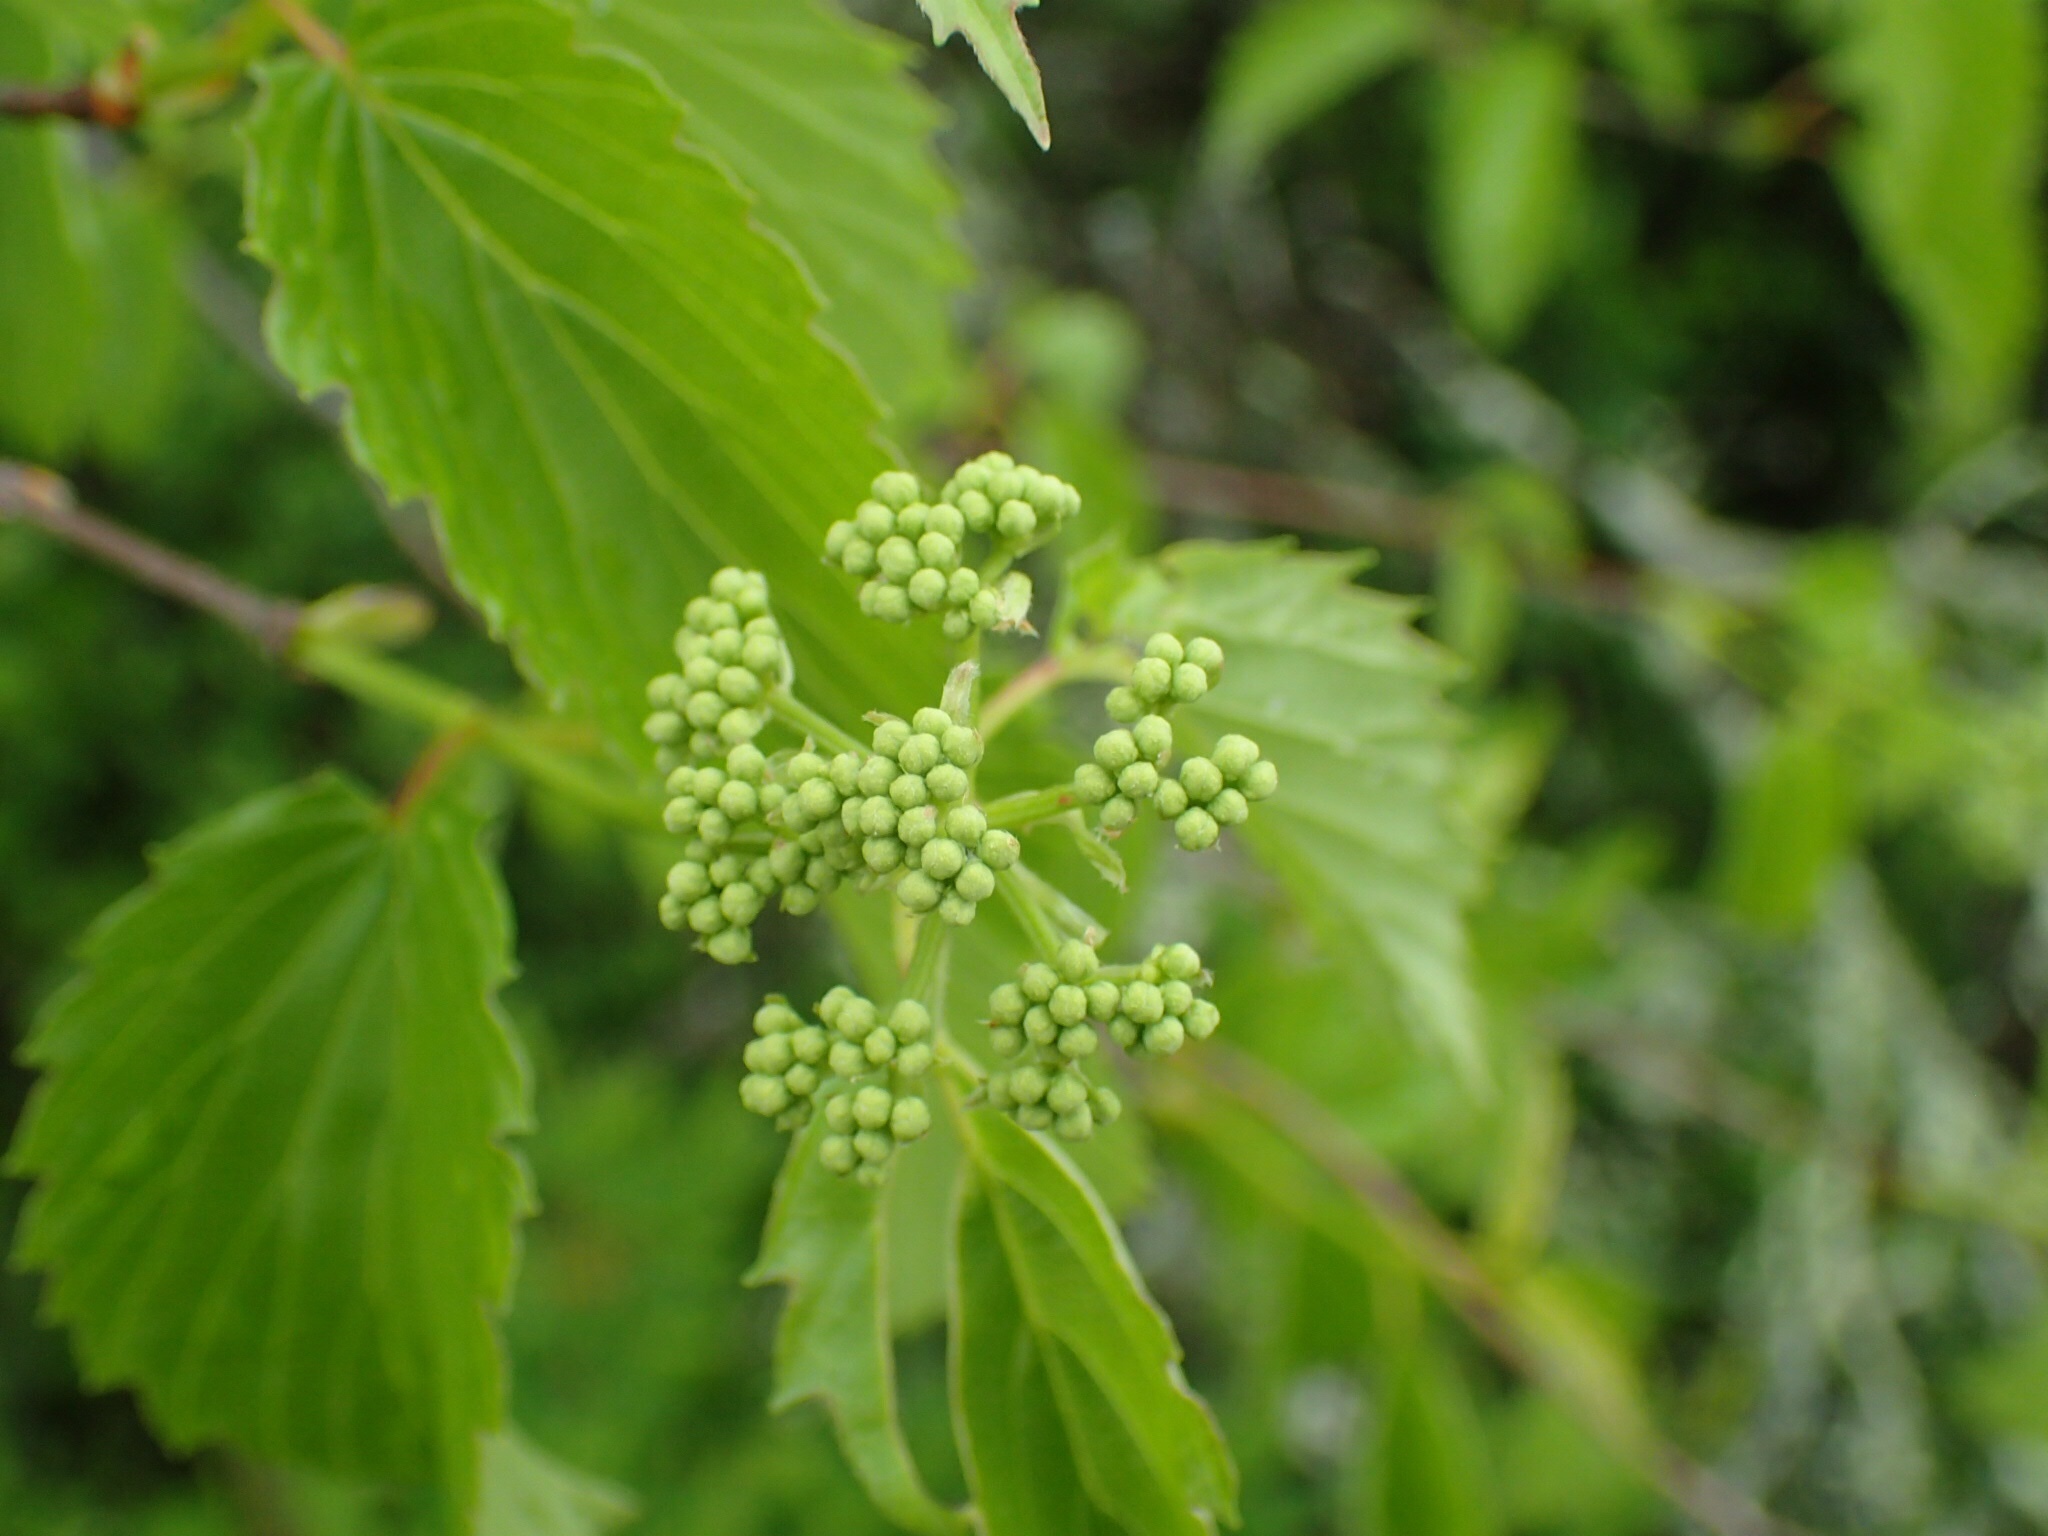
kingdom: Plantae
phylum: Tracheophyta
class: Magnoliopsida
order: Dipsacales
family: Viburnaceae
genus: Viburnum
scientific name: Viburnum dentatum
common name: Arrow-wood
